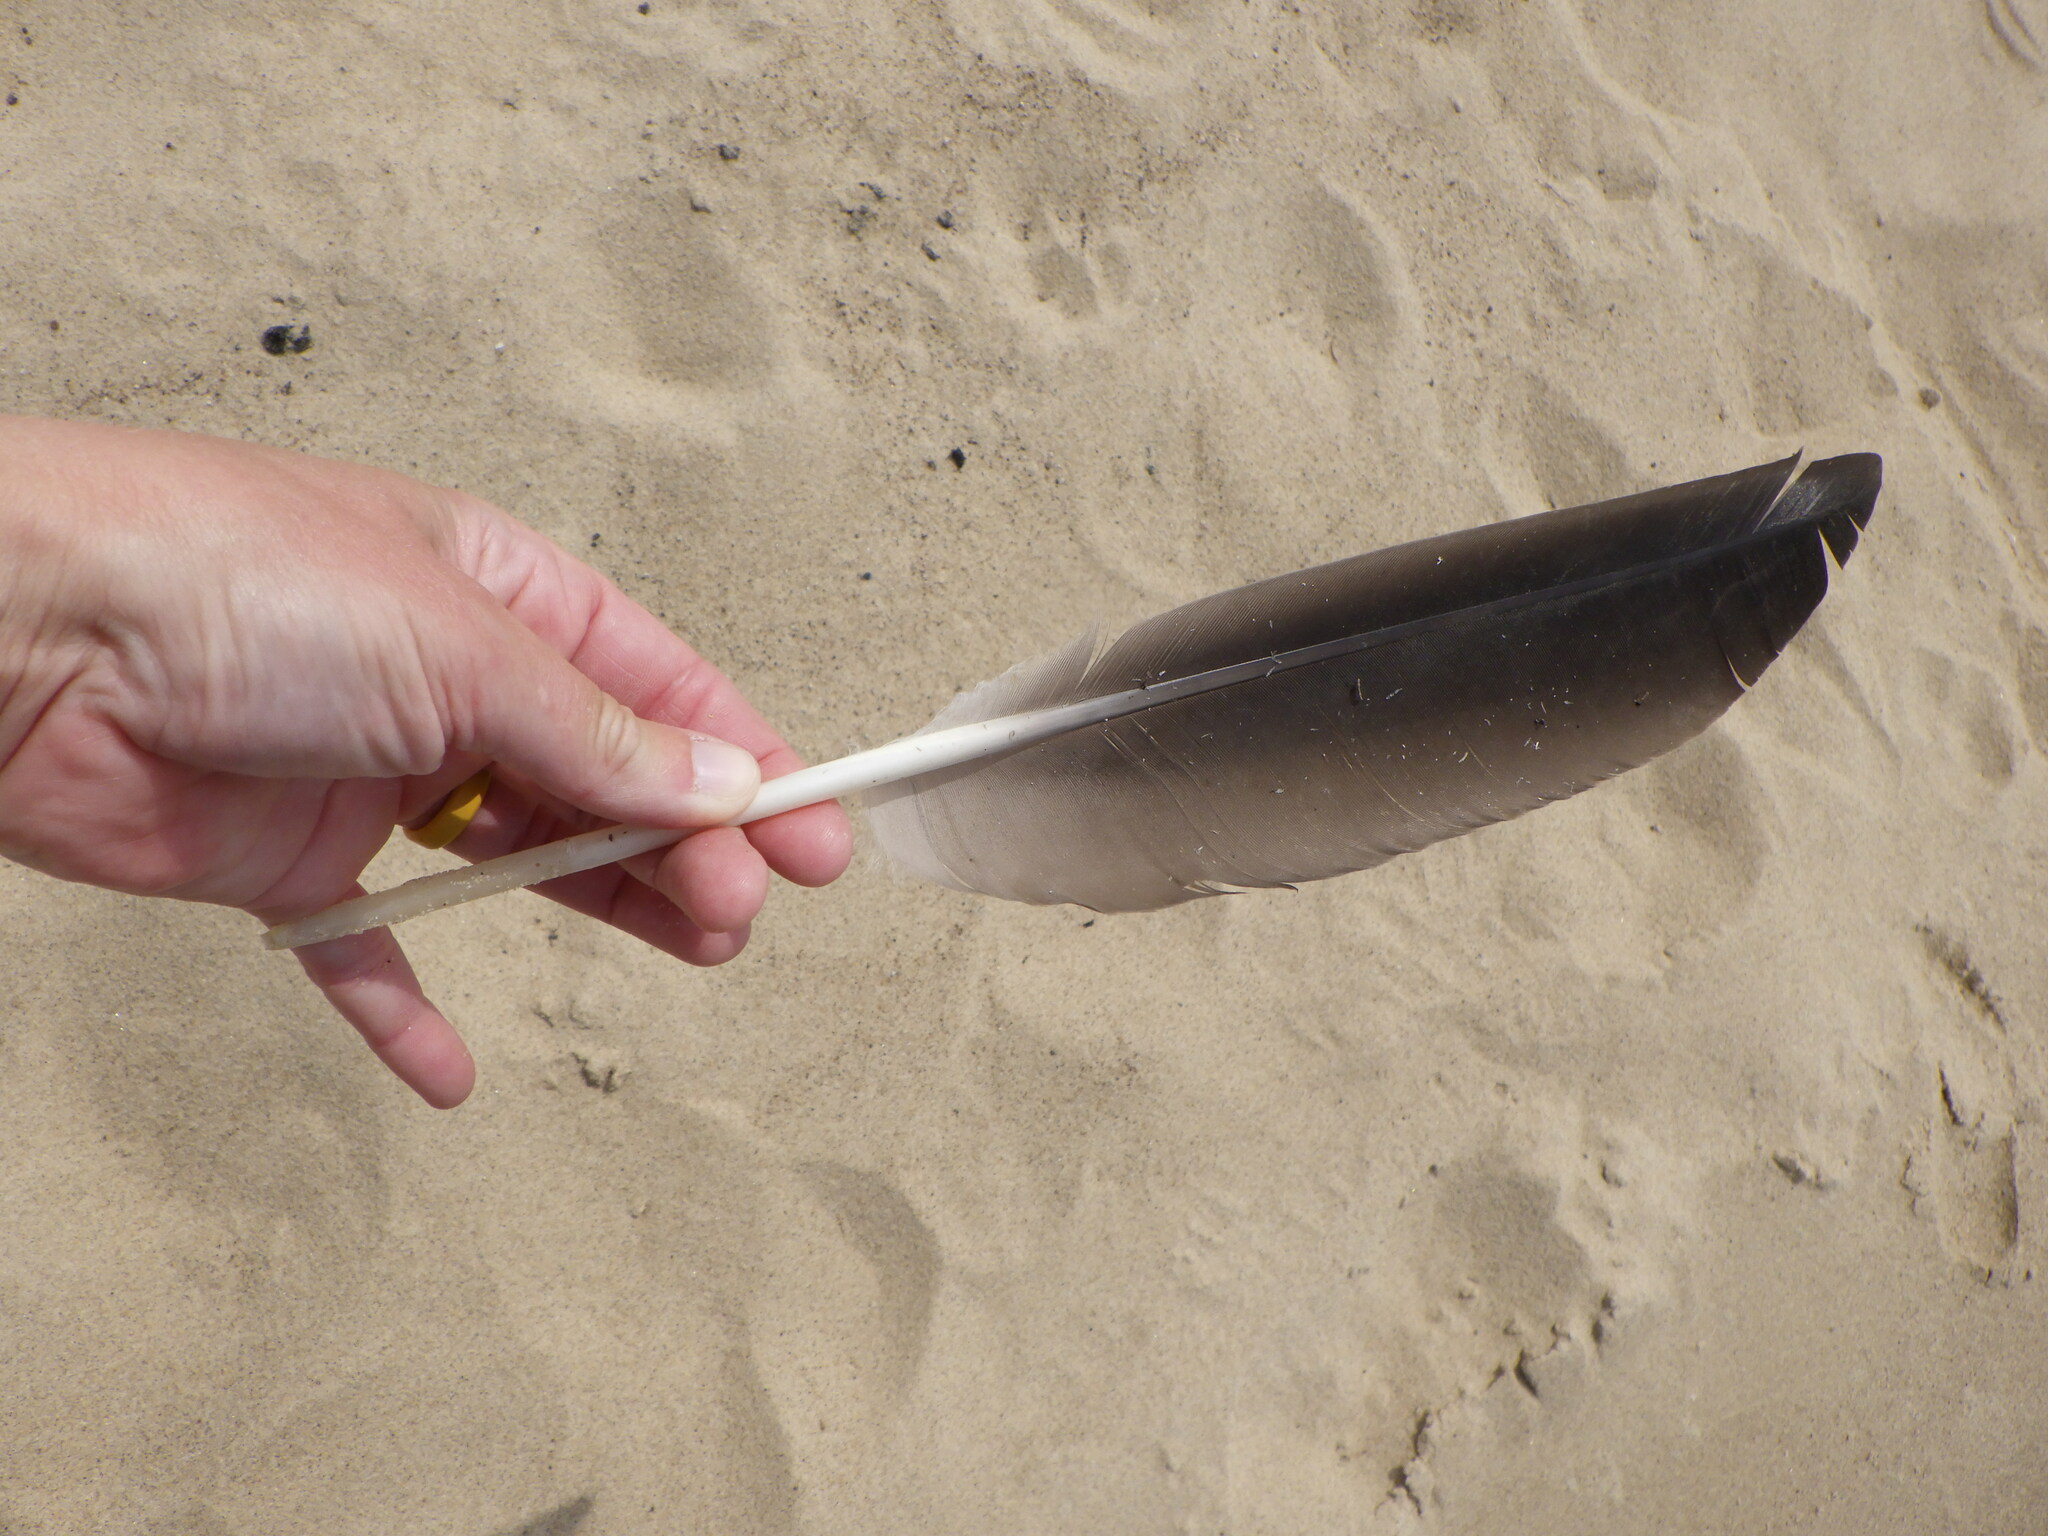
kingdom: Animalia
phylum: Chordata
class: Aves
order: Anseriformes
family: Anatidae
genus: Branta
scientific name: Branta canadensis
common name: Canada goose
